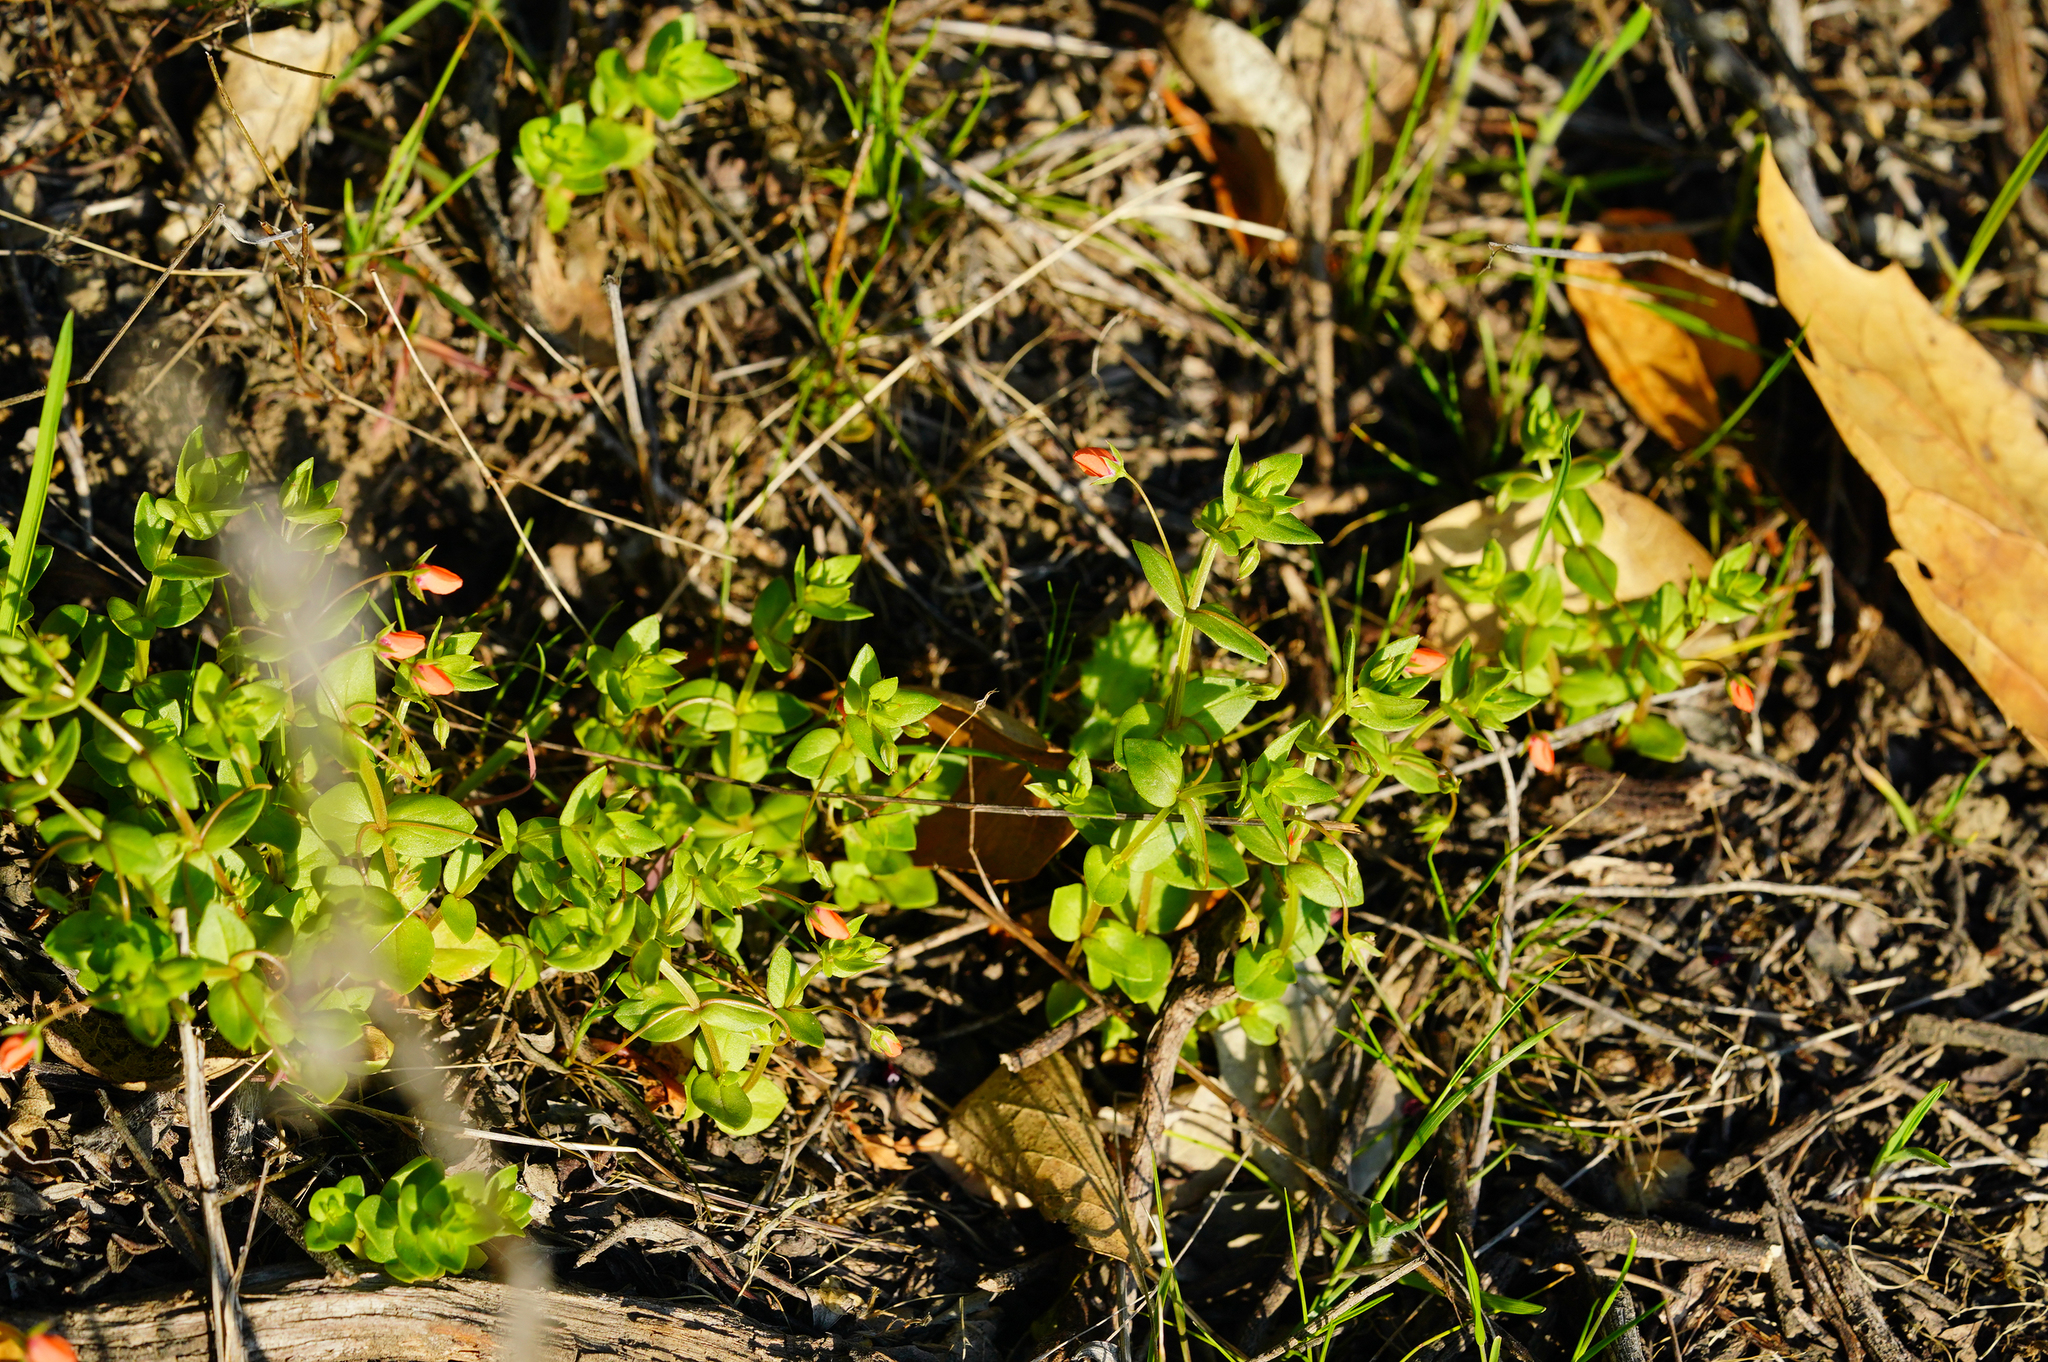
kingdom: Plantae
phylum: Tracheophyta
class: Magnoliopsida
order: Ericales
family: Primulaceae
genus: Lysimachia
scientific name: Lysimachia arvensis
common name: Scarlet pimpernel
